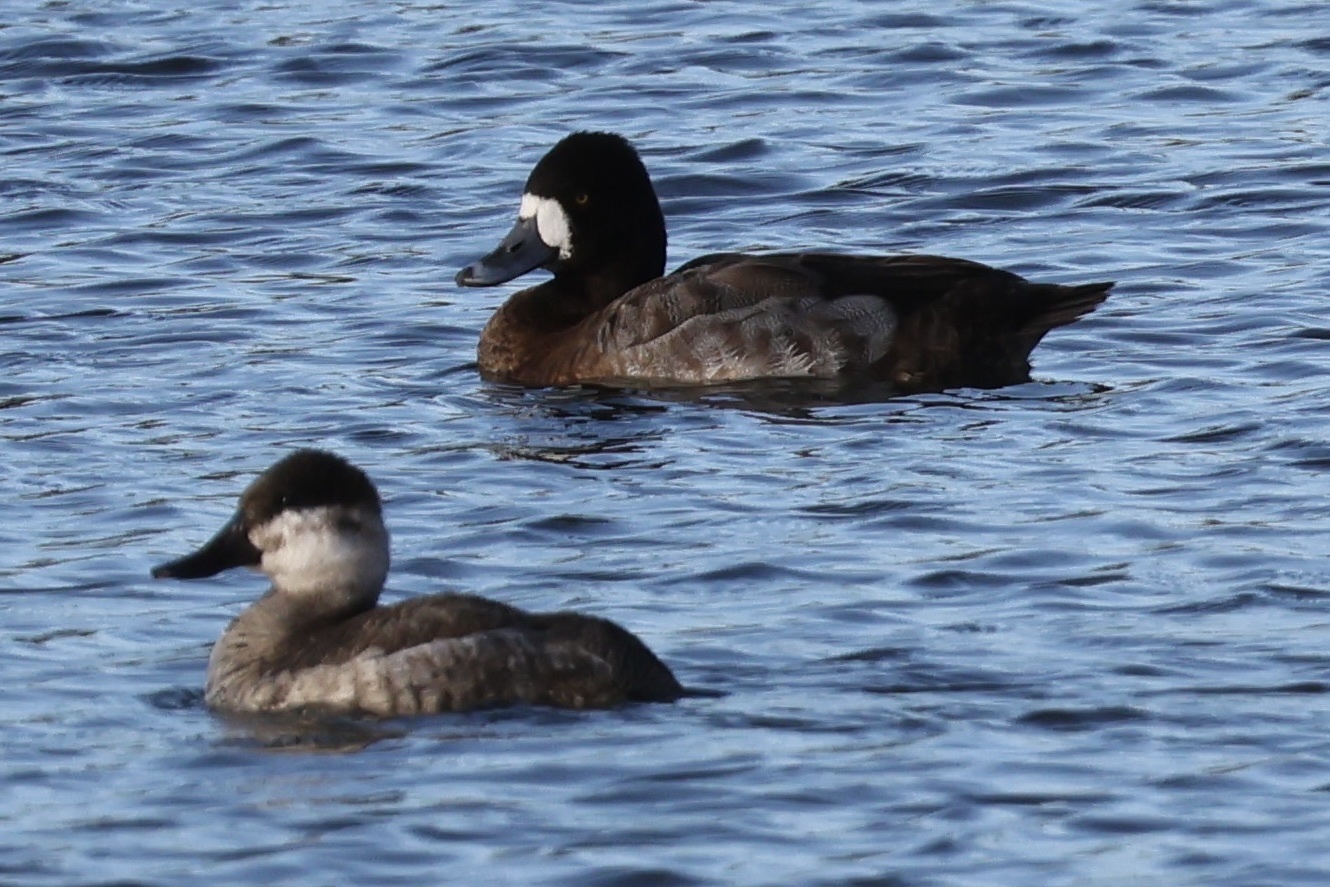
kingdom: Animalia
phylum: Chordata
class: Aves
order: Anseriformes
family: Anatidae
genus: Aythya
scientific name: Aythya affinis
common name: Lesser scaup
